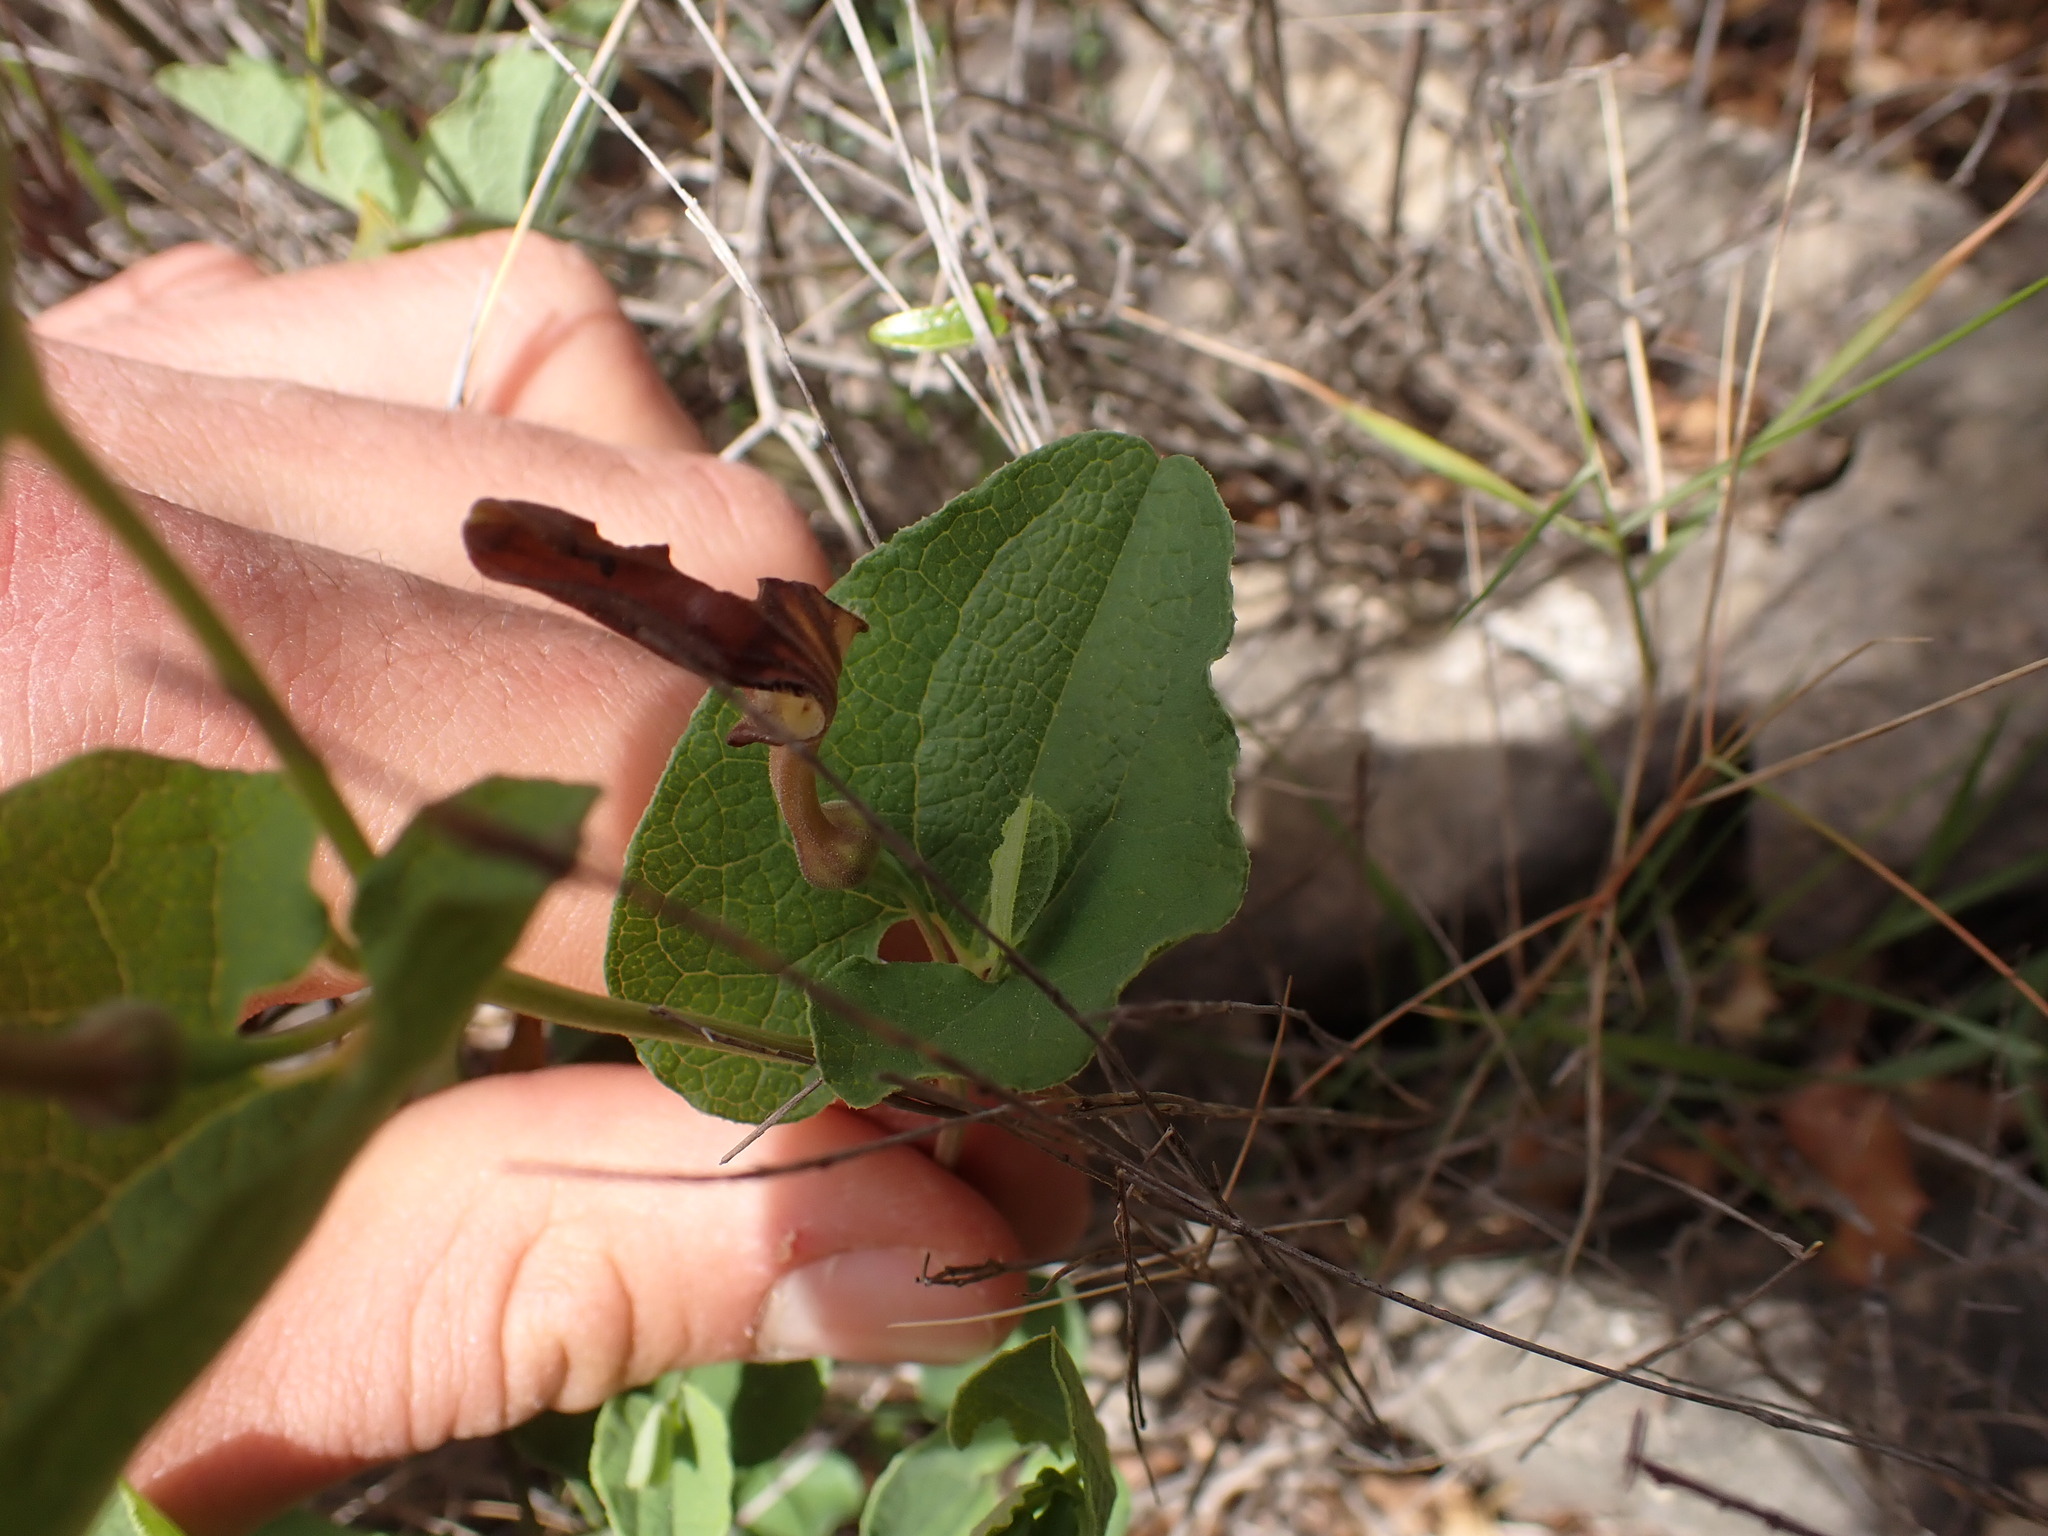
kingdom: Plantae
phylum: Tracheophyta
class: Magnoliopsida
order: Piperales
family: Aristolochiaceae
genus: Aristolochia
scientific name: Aristolochia rotunda
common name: Smearwort
